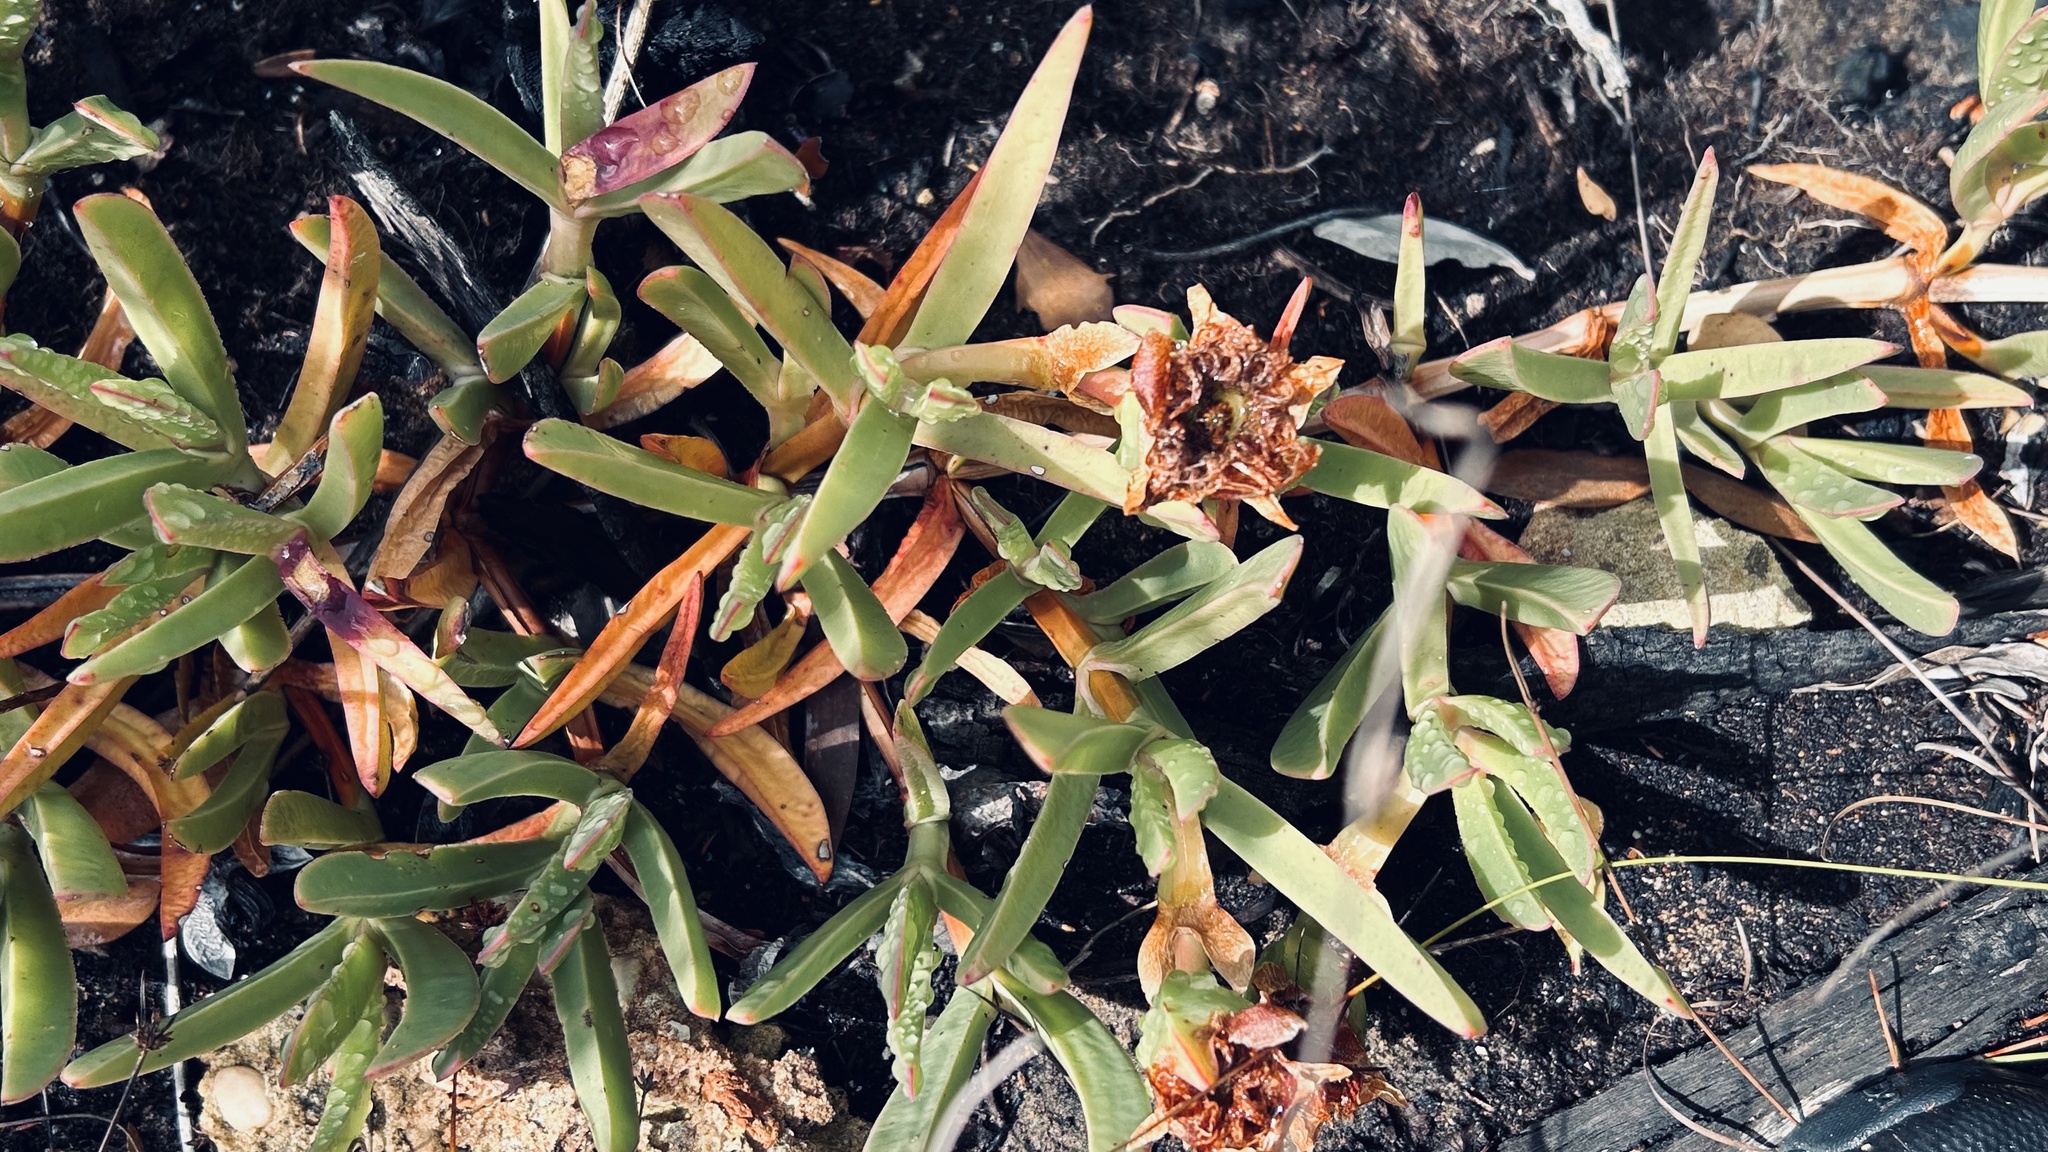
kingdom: Plantae
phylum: Tracheophyta
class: Magnoliopsida
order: Caryophyllales
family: Aizoaceae
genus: Carpobrotus
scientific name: Carpobrotus muirii
